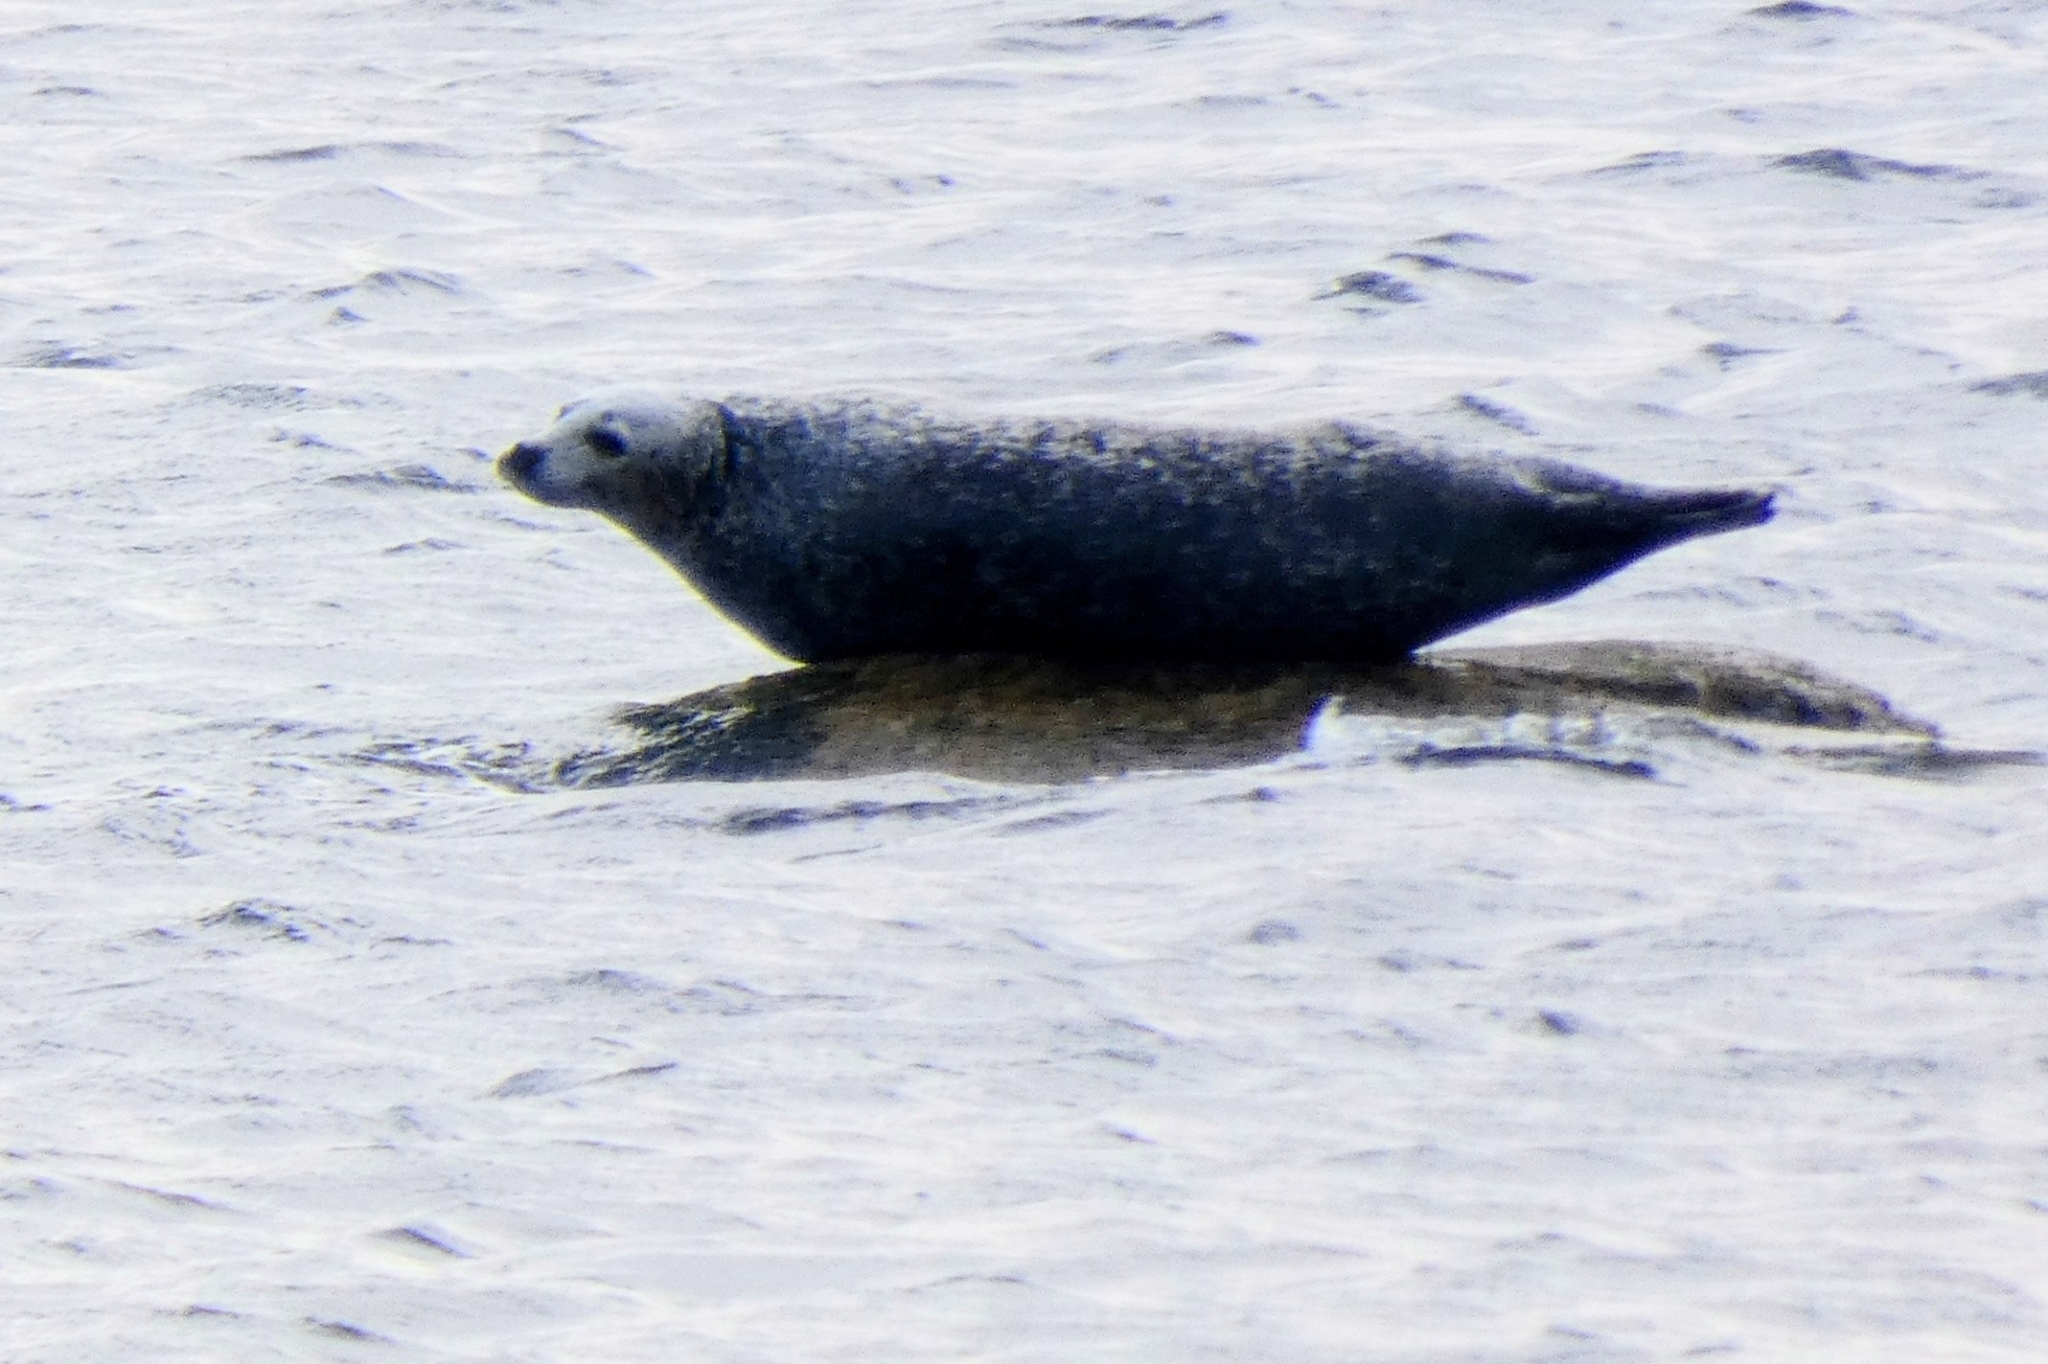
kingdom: Animalia
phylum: Chordata
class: Mammalia
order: Carnivora
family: Phocidae
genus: Phoca
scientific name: Phoca vitulina
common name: Harbor seal
